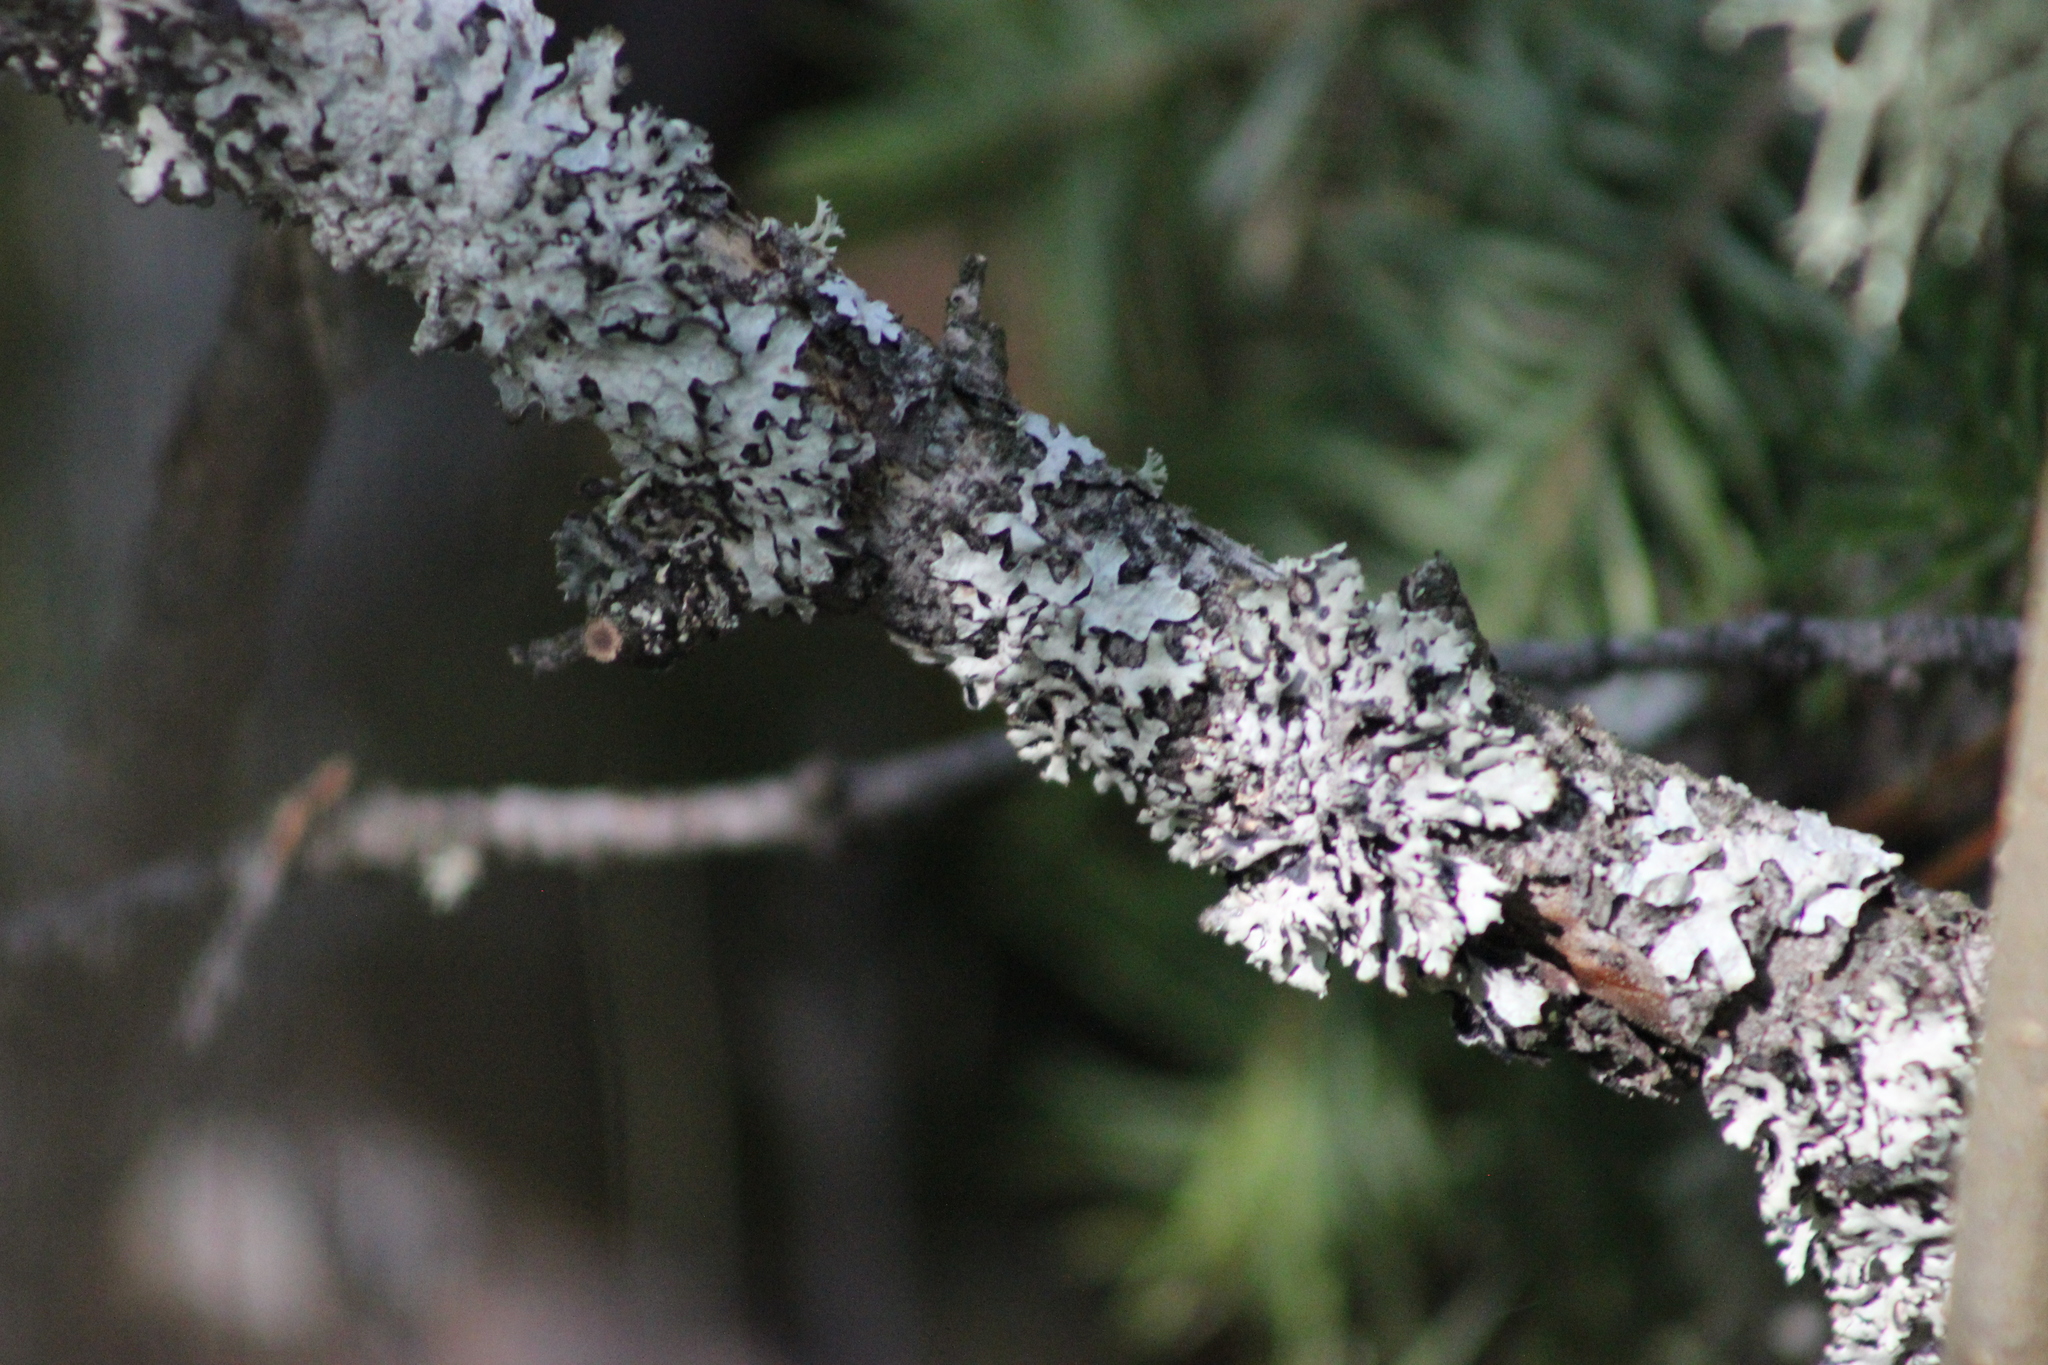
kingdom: Fungi
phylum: Ascomycota
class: Lecanoromycetes
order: Lecanorales
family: Parmeliaceae
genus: Hypogymnia
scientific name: Hypogymnia physodes
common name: Dark crottle
